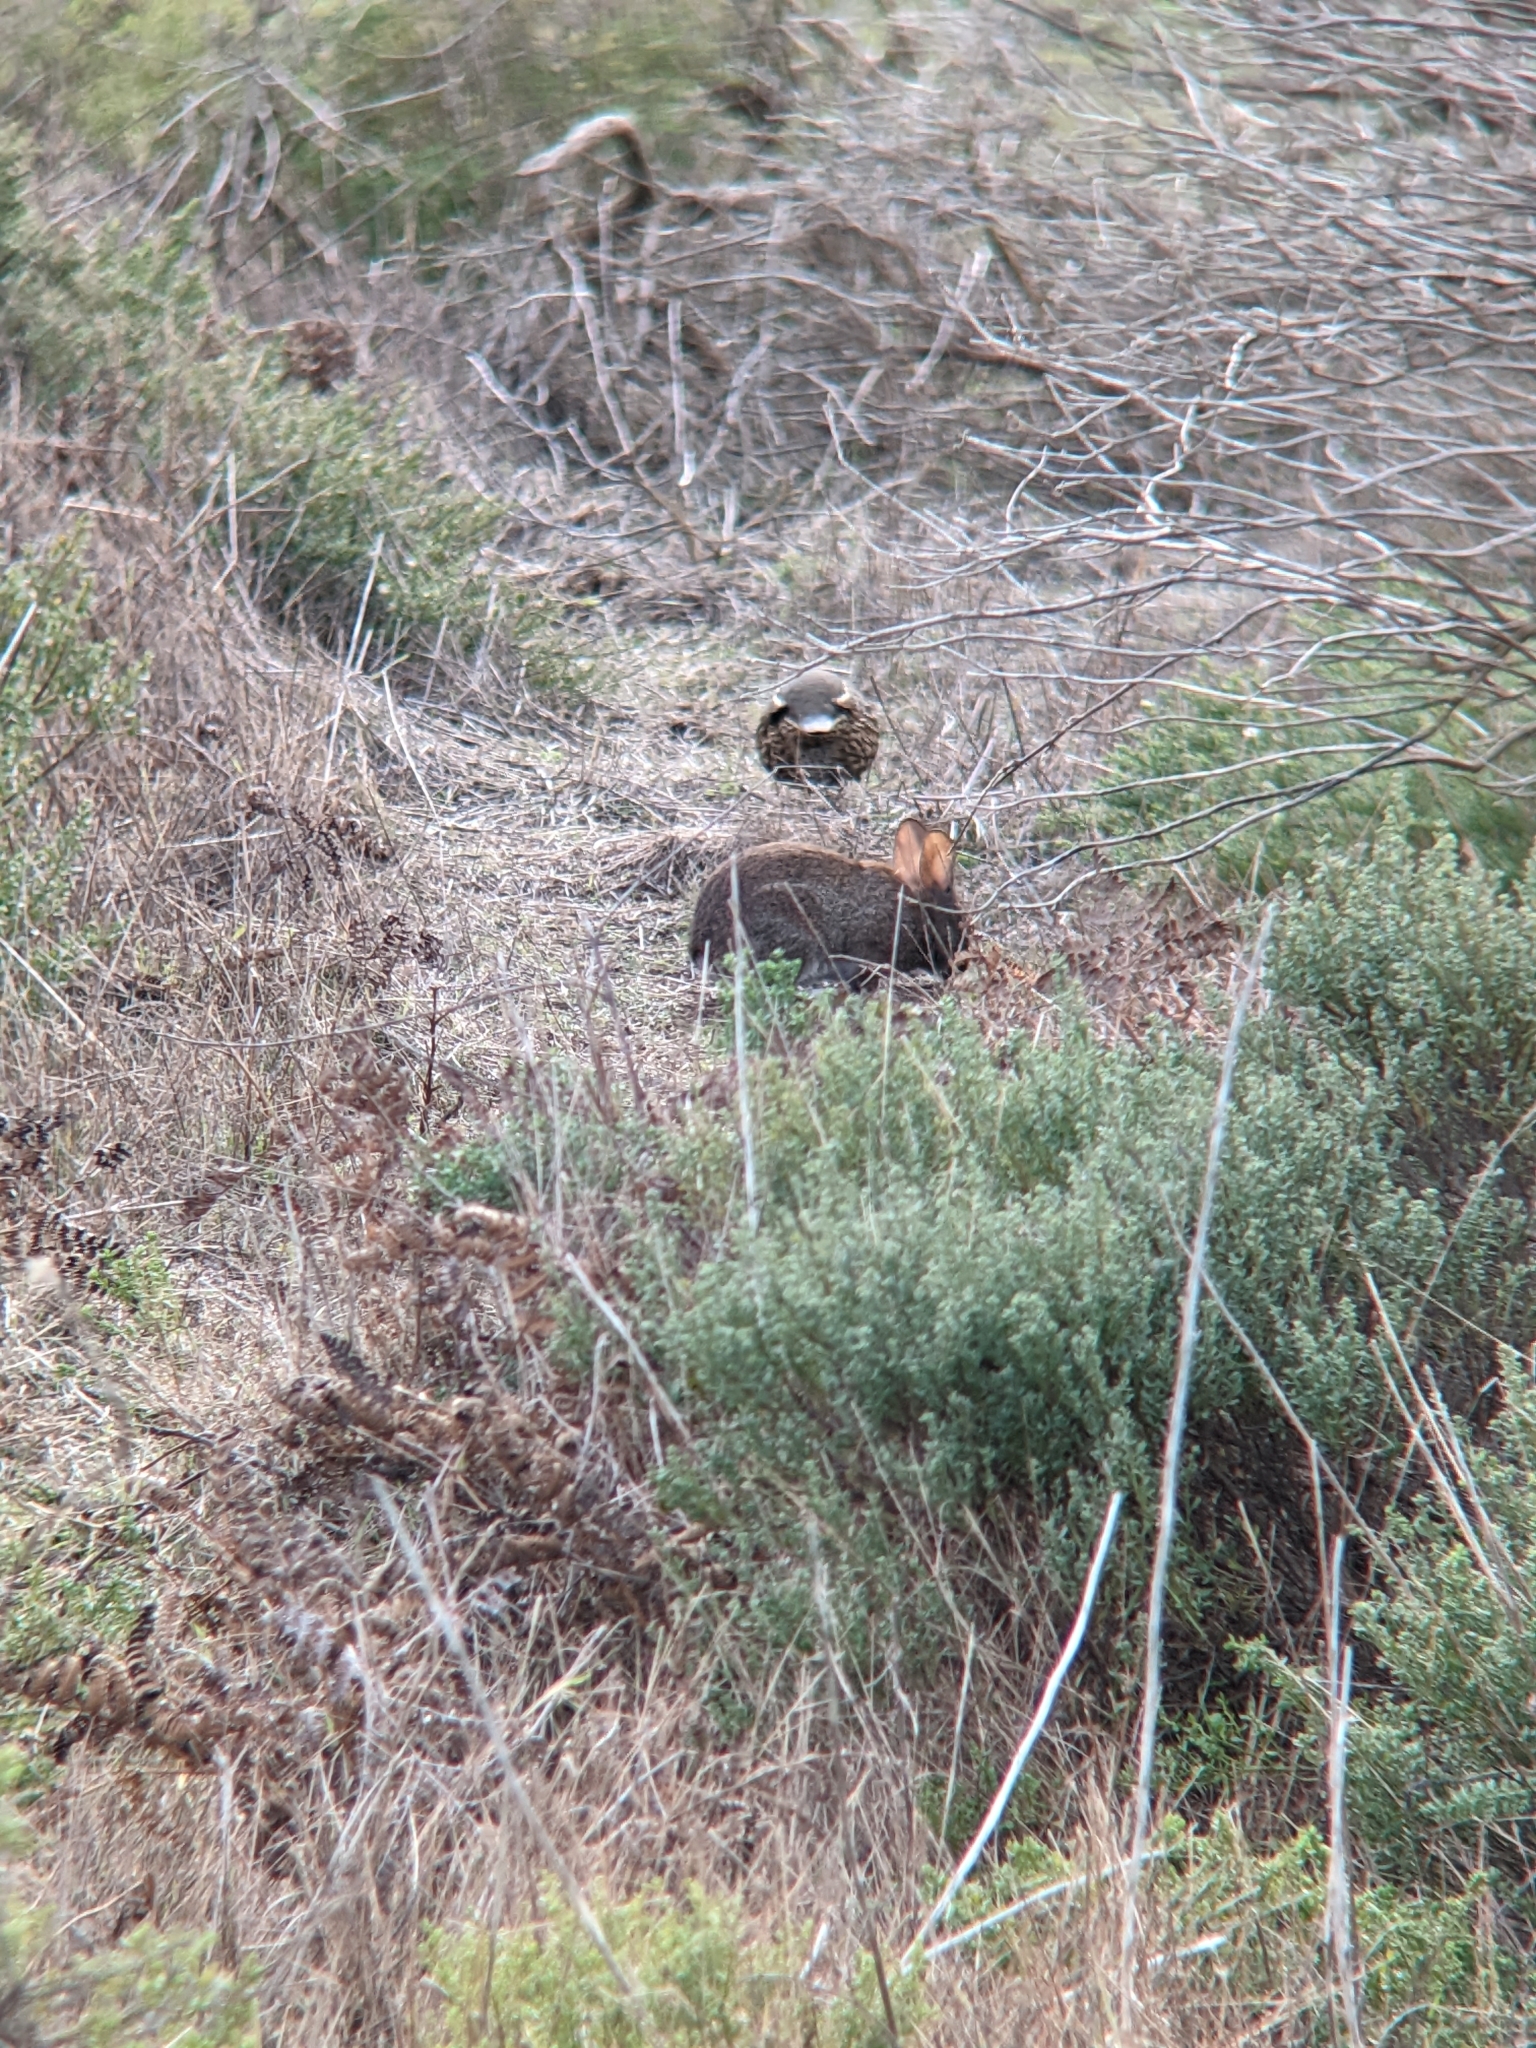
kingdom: Animalia
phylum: Chordata
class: Mammalia
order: Lagomorpha
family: Leporidae
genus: Sylvilagus
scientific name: Sylvilagus bachmani
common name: Brush rabbit
